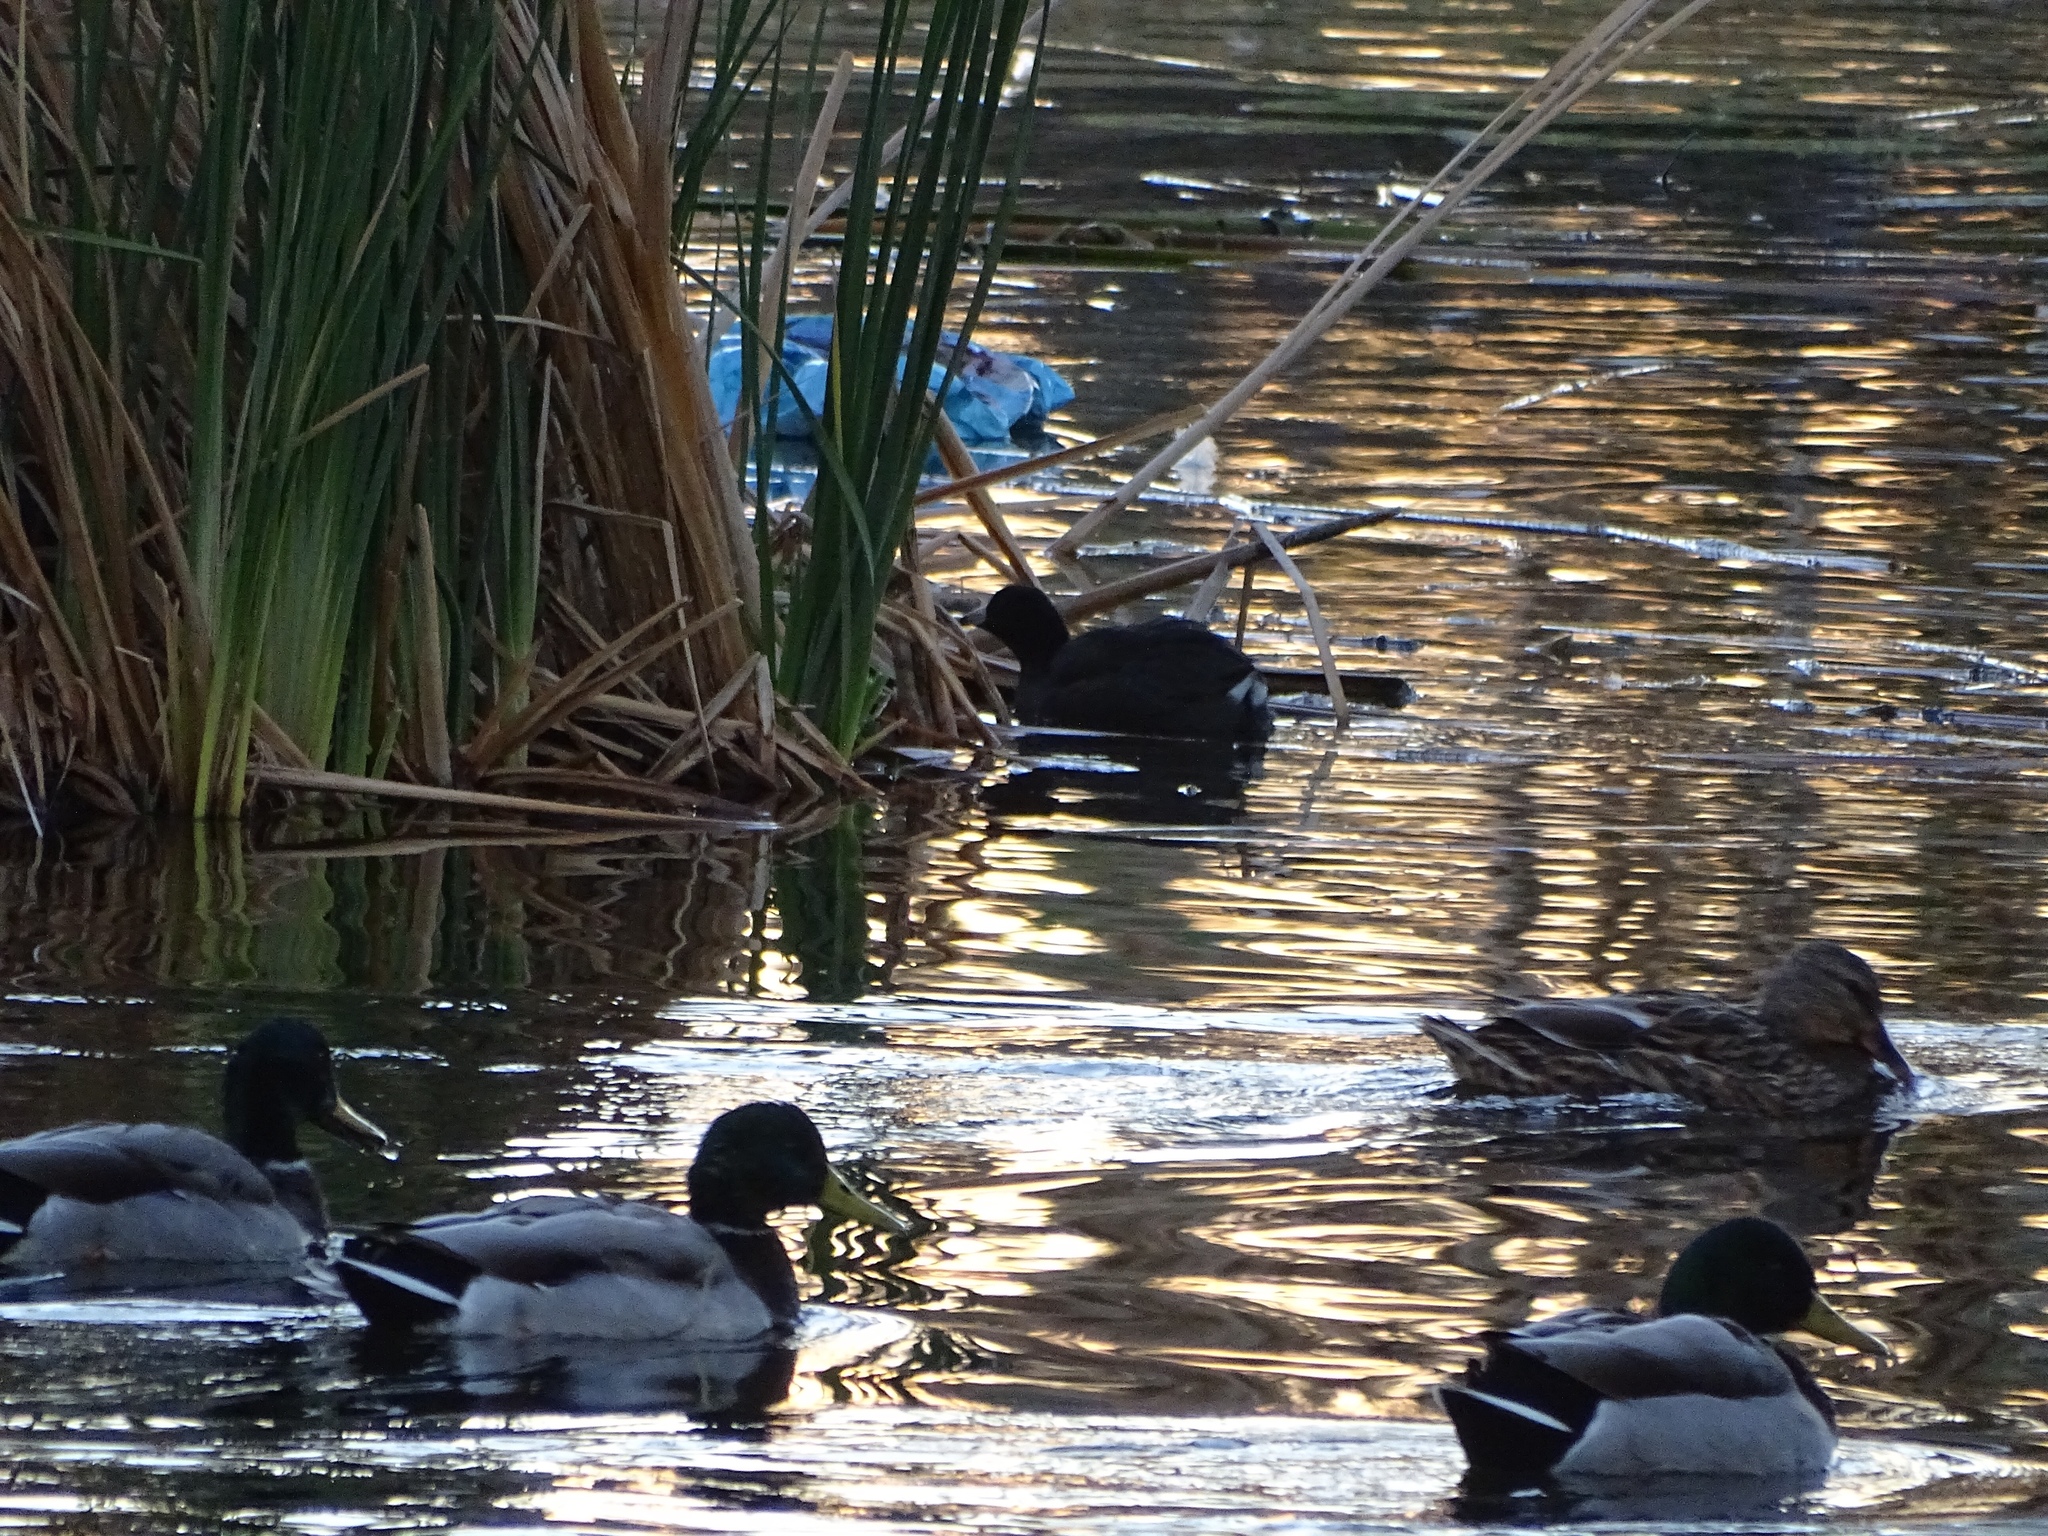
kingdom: Animalia
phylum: Chordata
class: Aves
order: Gruiformes
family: Rallidae
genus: Fulica
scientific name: Fulica americana
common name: American coot
